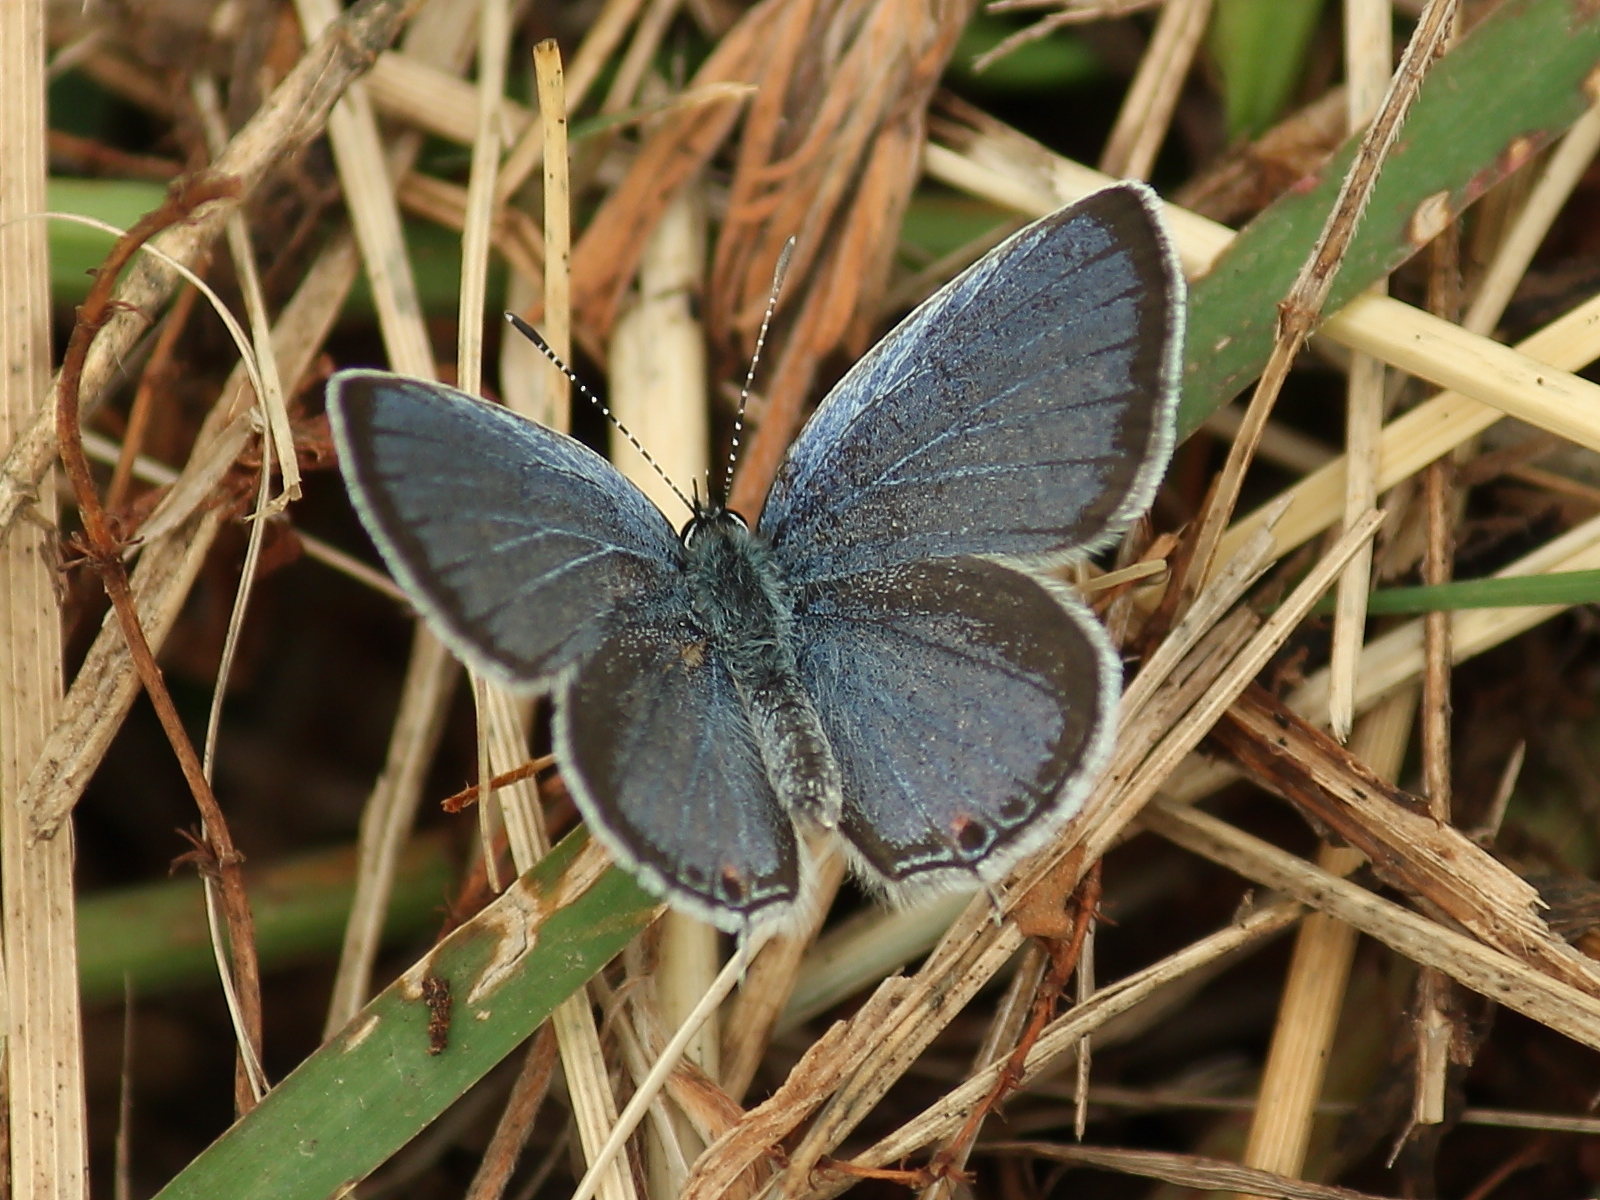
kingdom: Animalia
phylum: Arthropoda
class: Insecta
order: Lepidoptera
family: Lycaenidae
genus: Elkalyce
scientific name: Elkalyce comyntas
